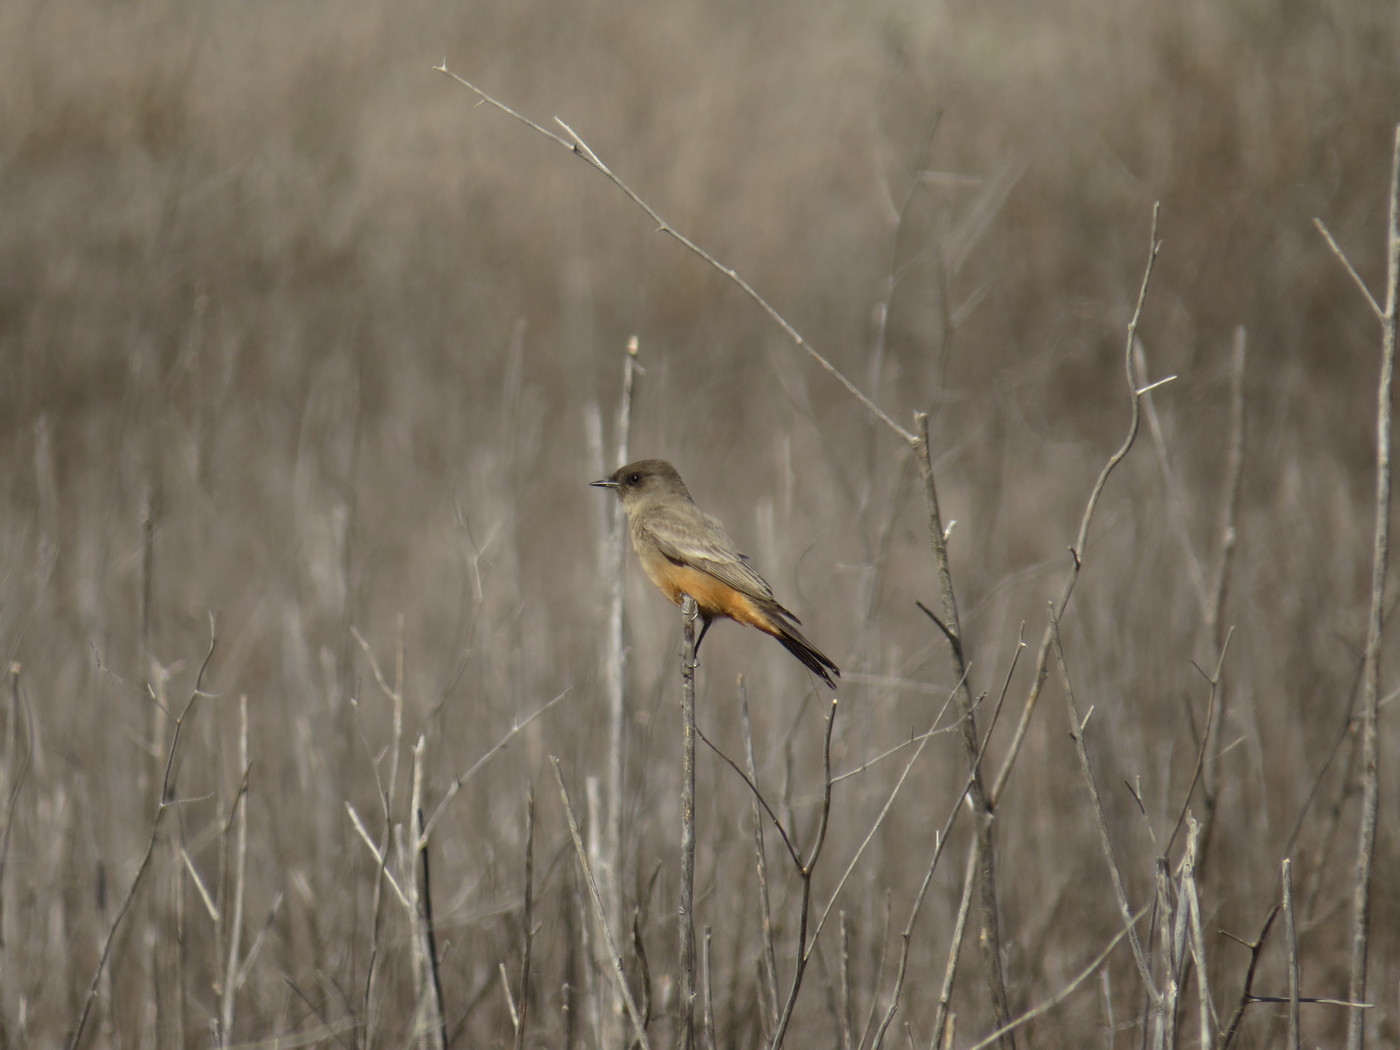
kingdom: Animalia
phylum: Chordata
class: Aves
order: Passeriformes
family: Tyrannidae
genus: Sayornis
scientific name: Sayornis saya
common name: Say's phoebe
